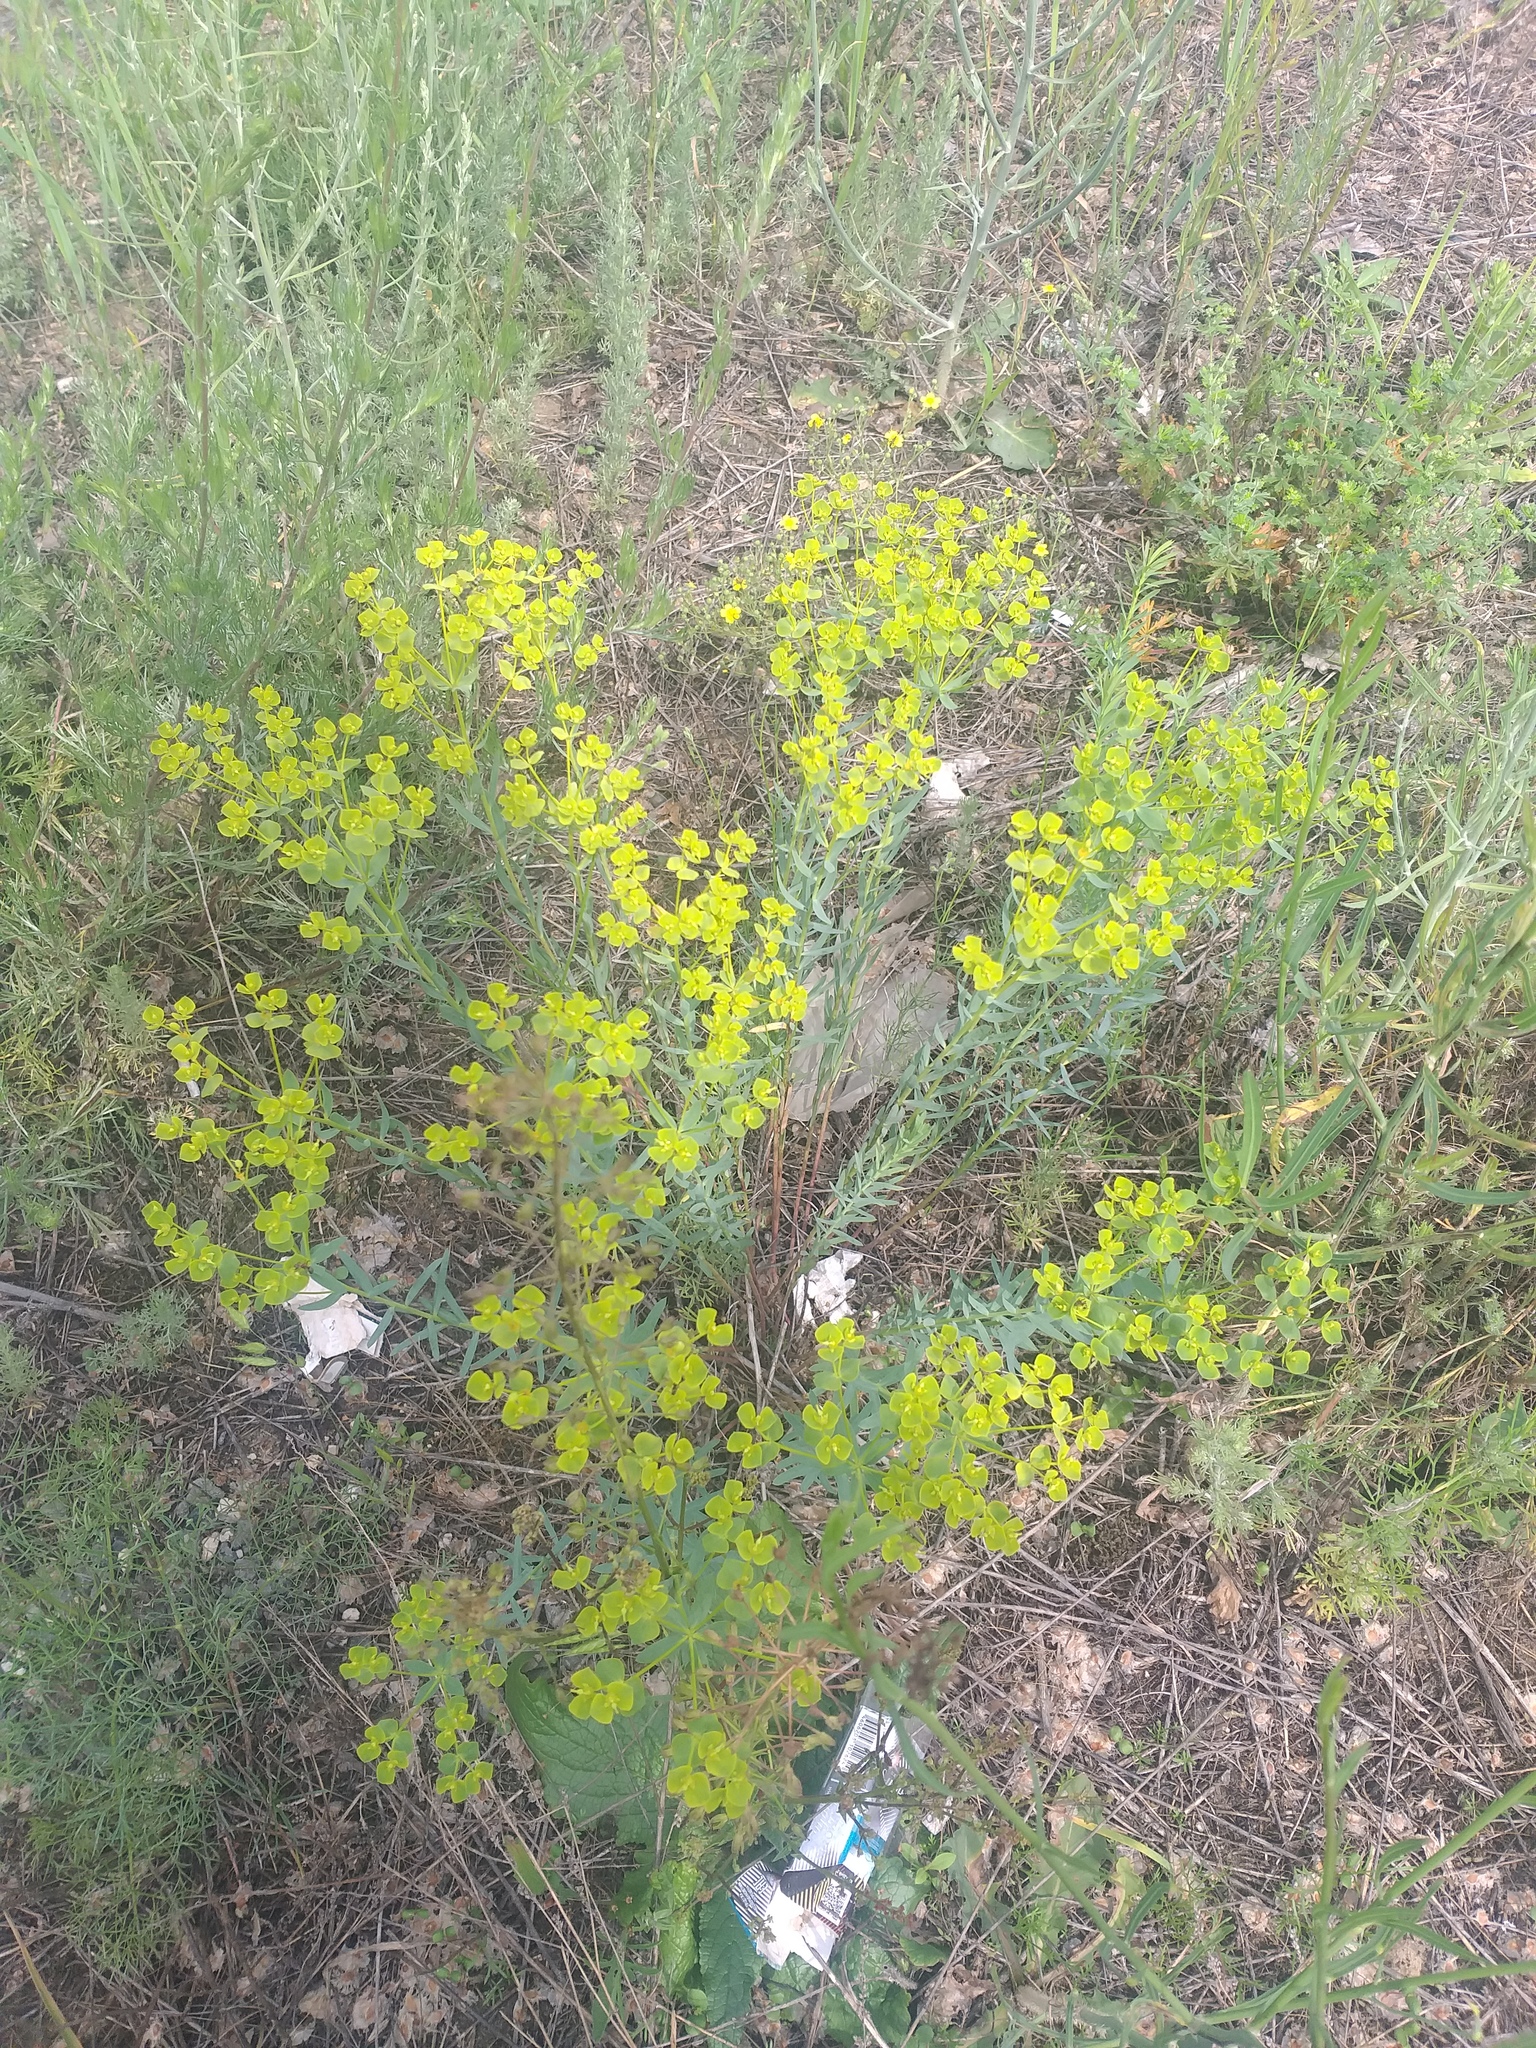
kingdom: Plantae
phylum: Tracheophyta
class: Magnoliopsida
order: Malpighiales
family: Euphorbiaceae
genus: Euphorbia
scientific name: Euphorbia seguieriana
